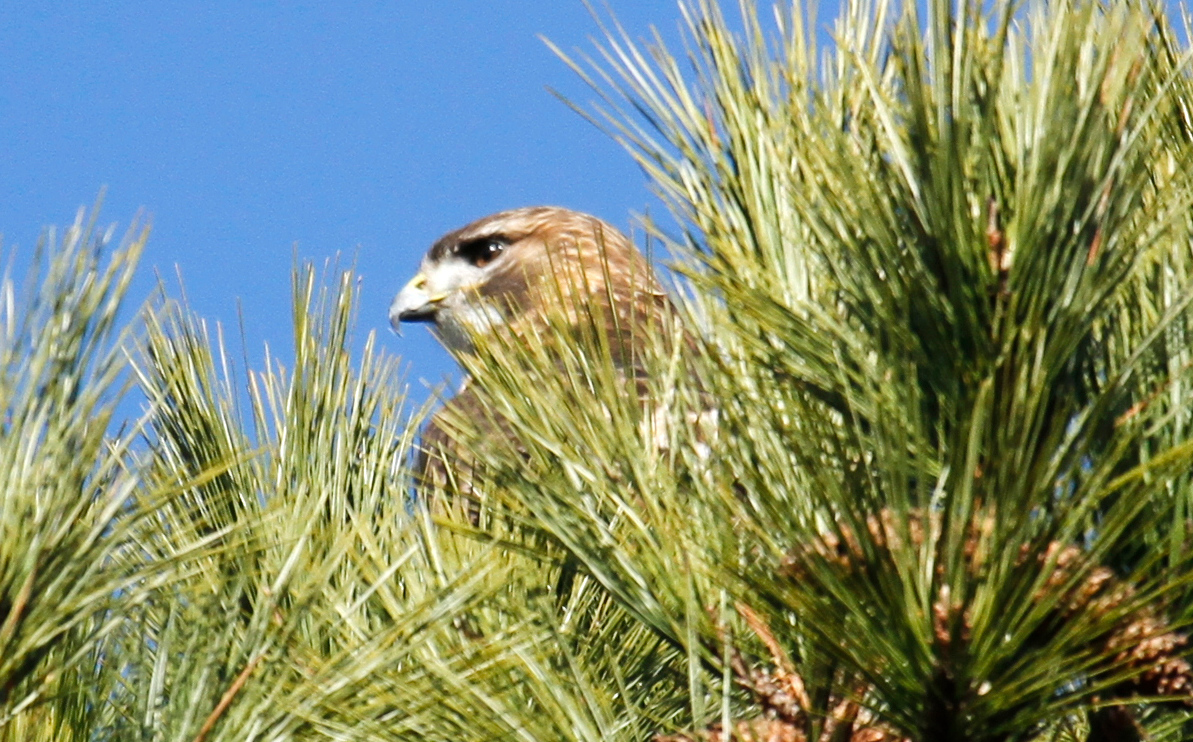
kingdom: Animalia
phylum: Chordata
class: Aves
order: Accipitriformes
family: Accipitridae
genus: Buteo
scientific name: Buteo jamaicensis
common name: Red-tailed hawk
